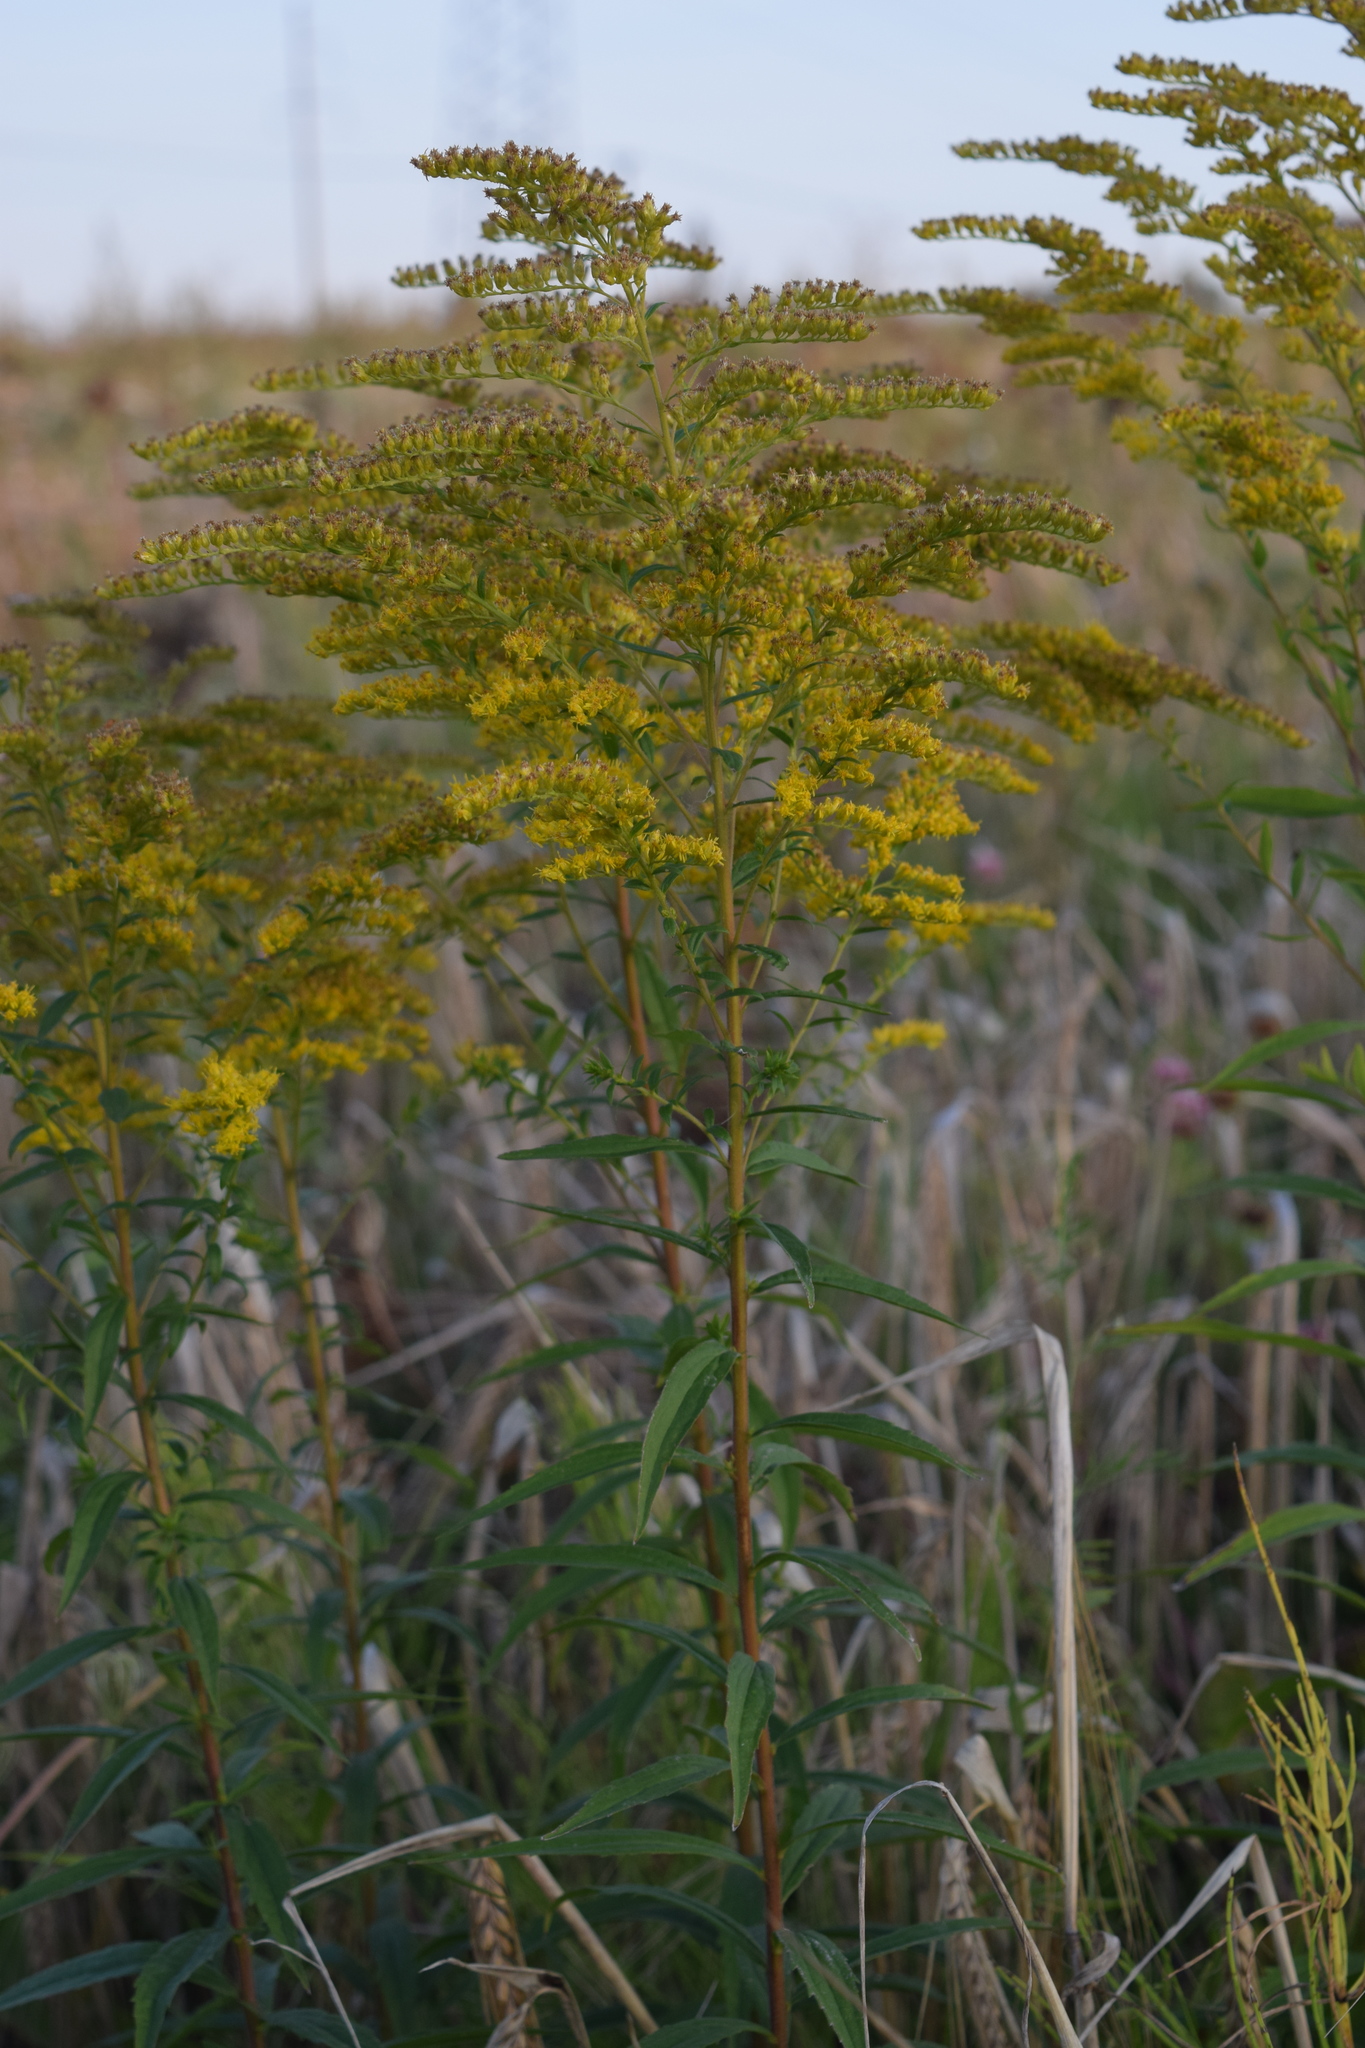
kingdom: Plantae
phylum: Tracheophyta
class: Magnoliopsida
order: Asterales
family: Asteraceae
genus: Solidago
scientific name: Solidago canadensis
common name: Canada goldenrod
